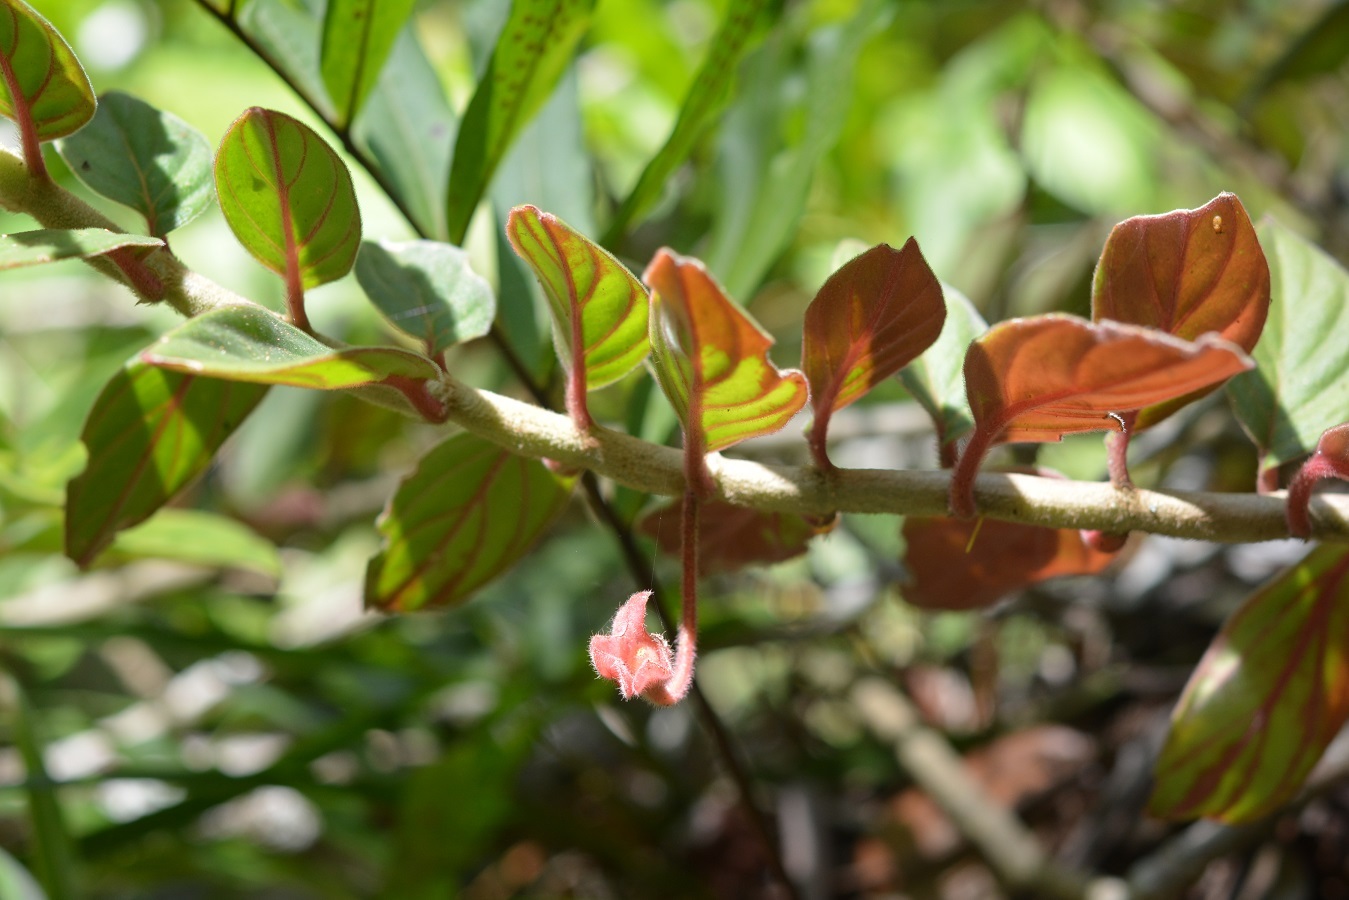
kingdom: Plantae
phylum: Tracheophyta
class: Magnoliopsida
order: Lamiales
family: Gesneriaceae
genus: Columnea
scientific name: Columnea schiedeana
